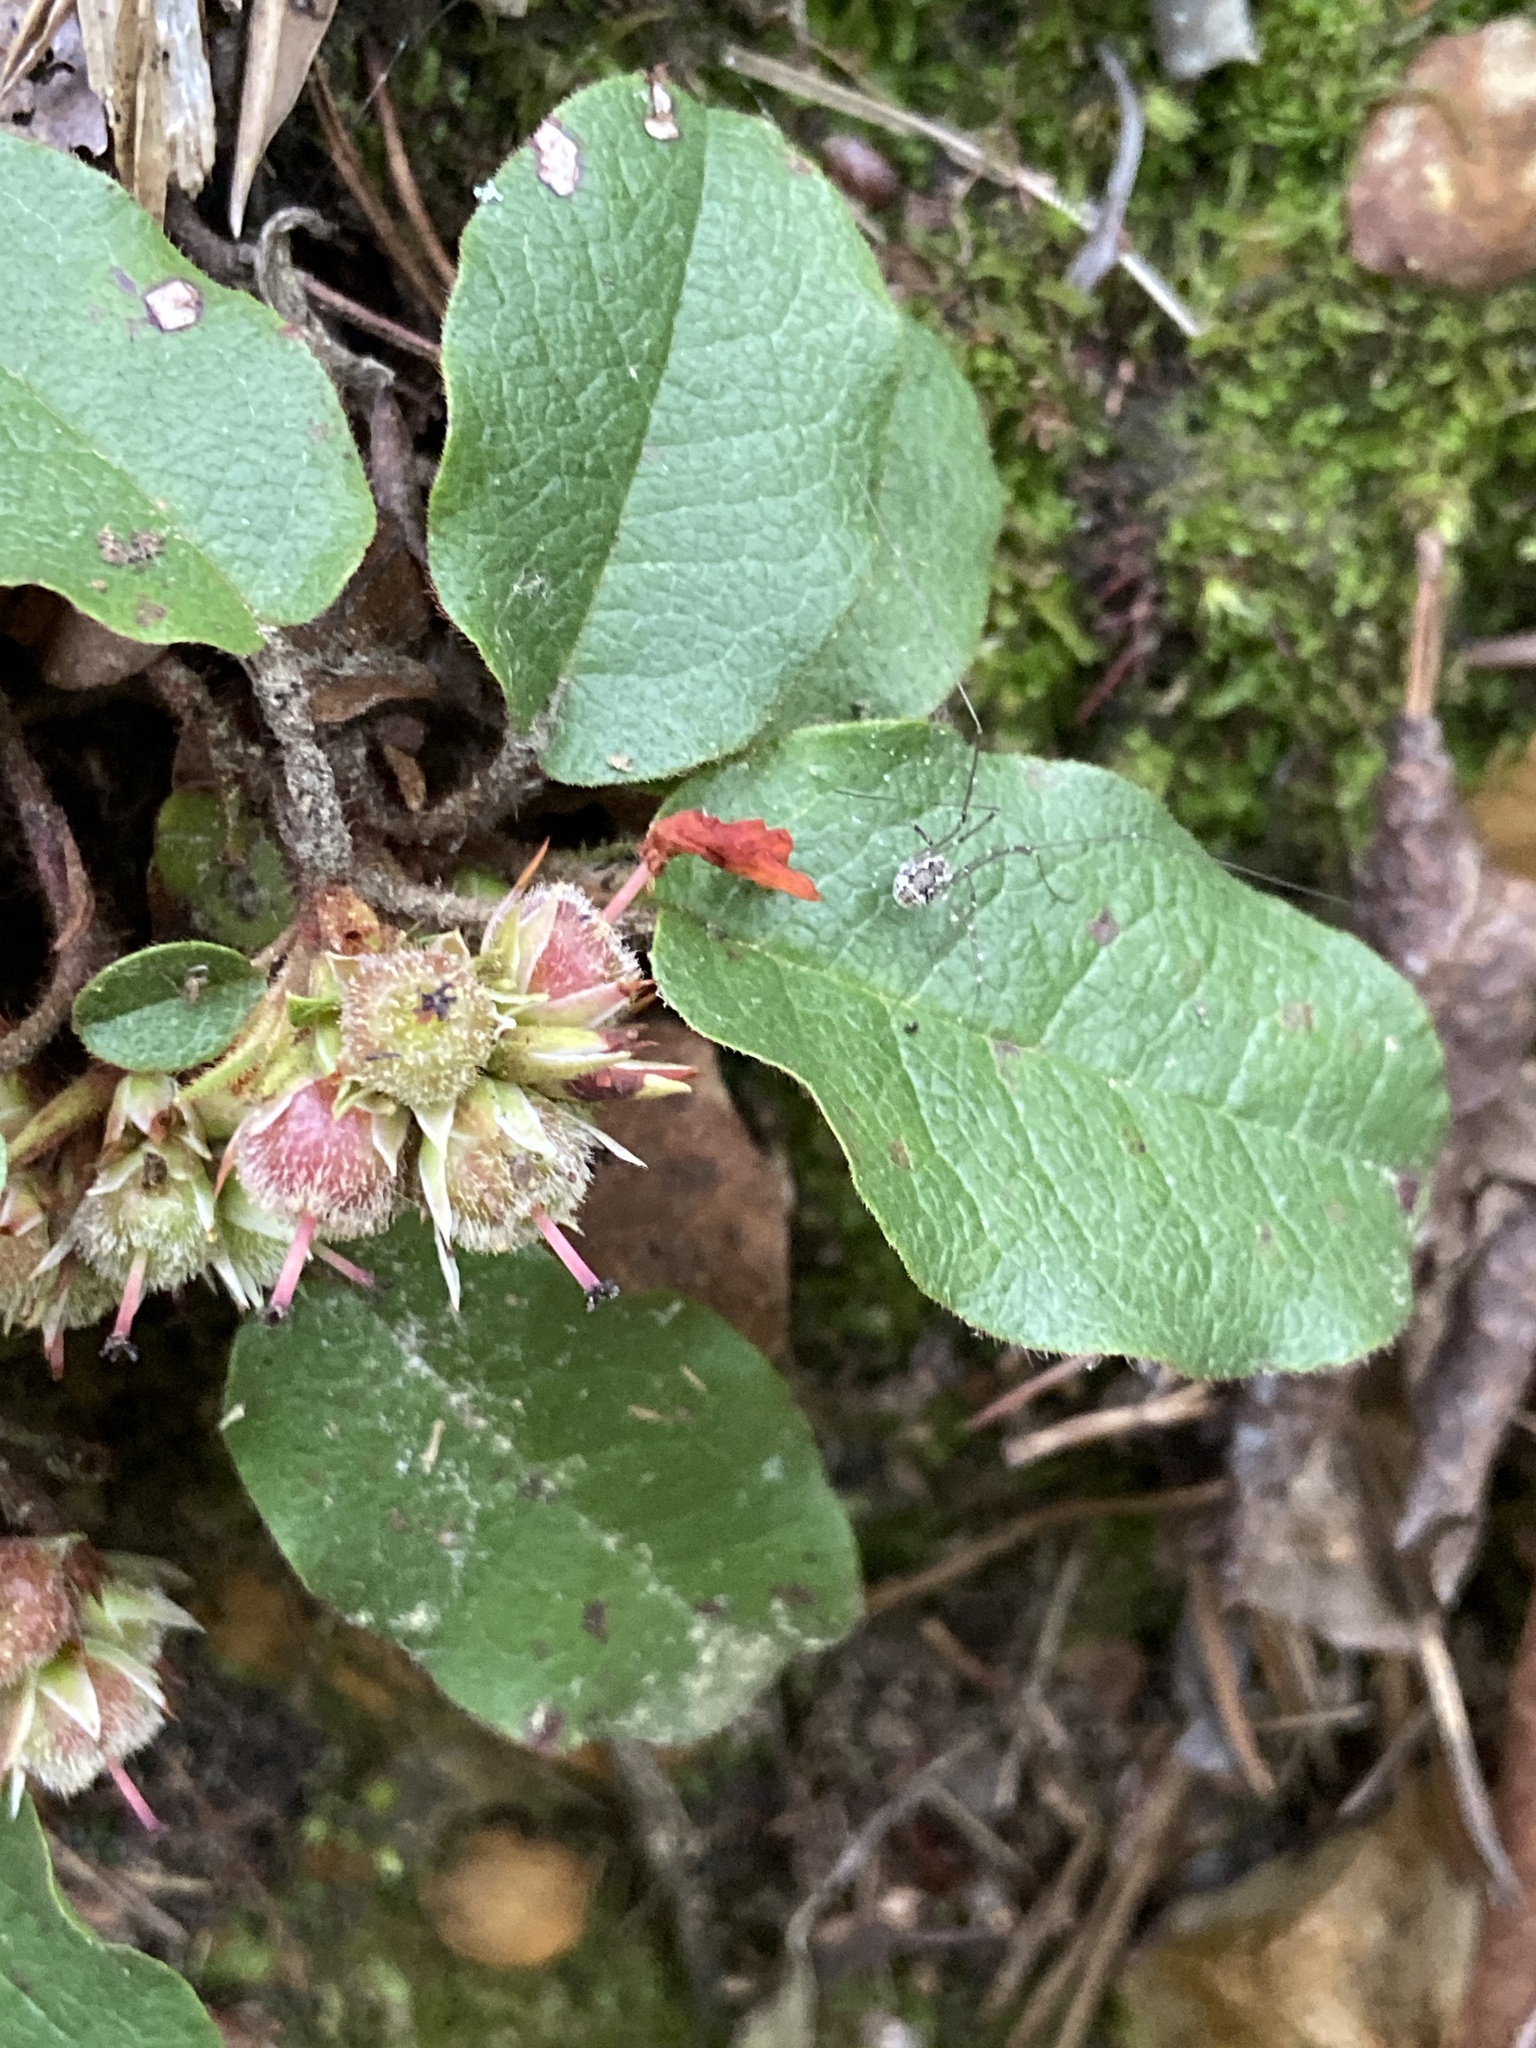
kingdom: Plantae
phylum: Tracheophyta
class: Magnoliopsida
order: Ericales
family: Ericaceae
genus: Epigaea
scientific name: Epigaea repens
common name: Gravelroot
